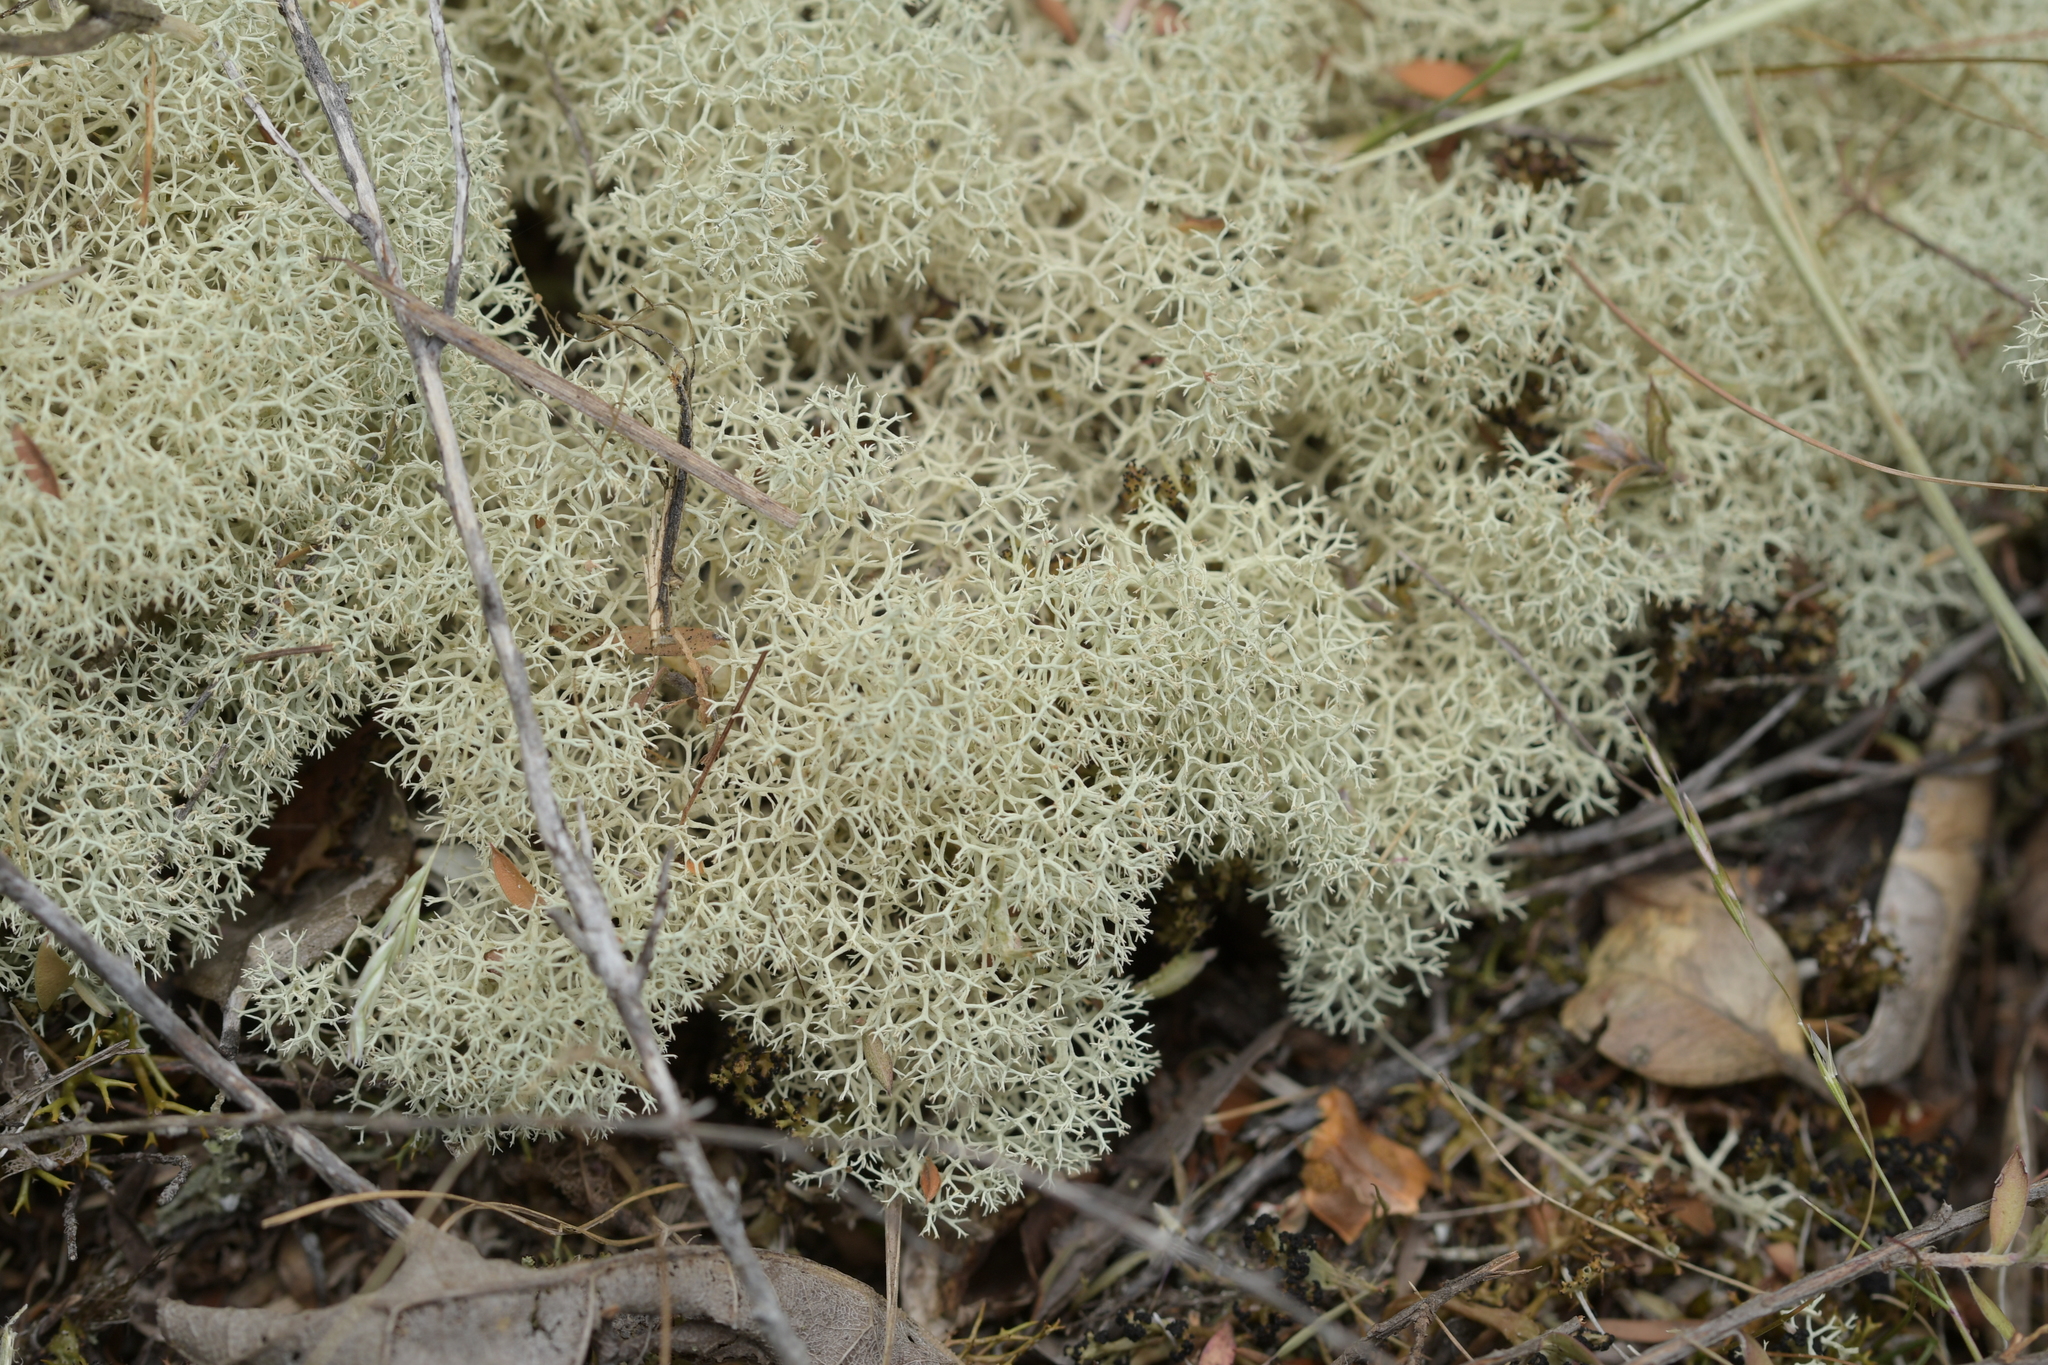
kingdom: Fungi
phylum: Ascomycota
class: Lecanoromycetes
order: Lecanorales
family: Cladoniaceae
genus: Cladonia
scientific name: Cladonia confusa
